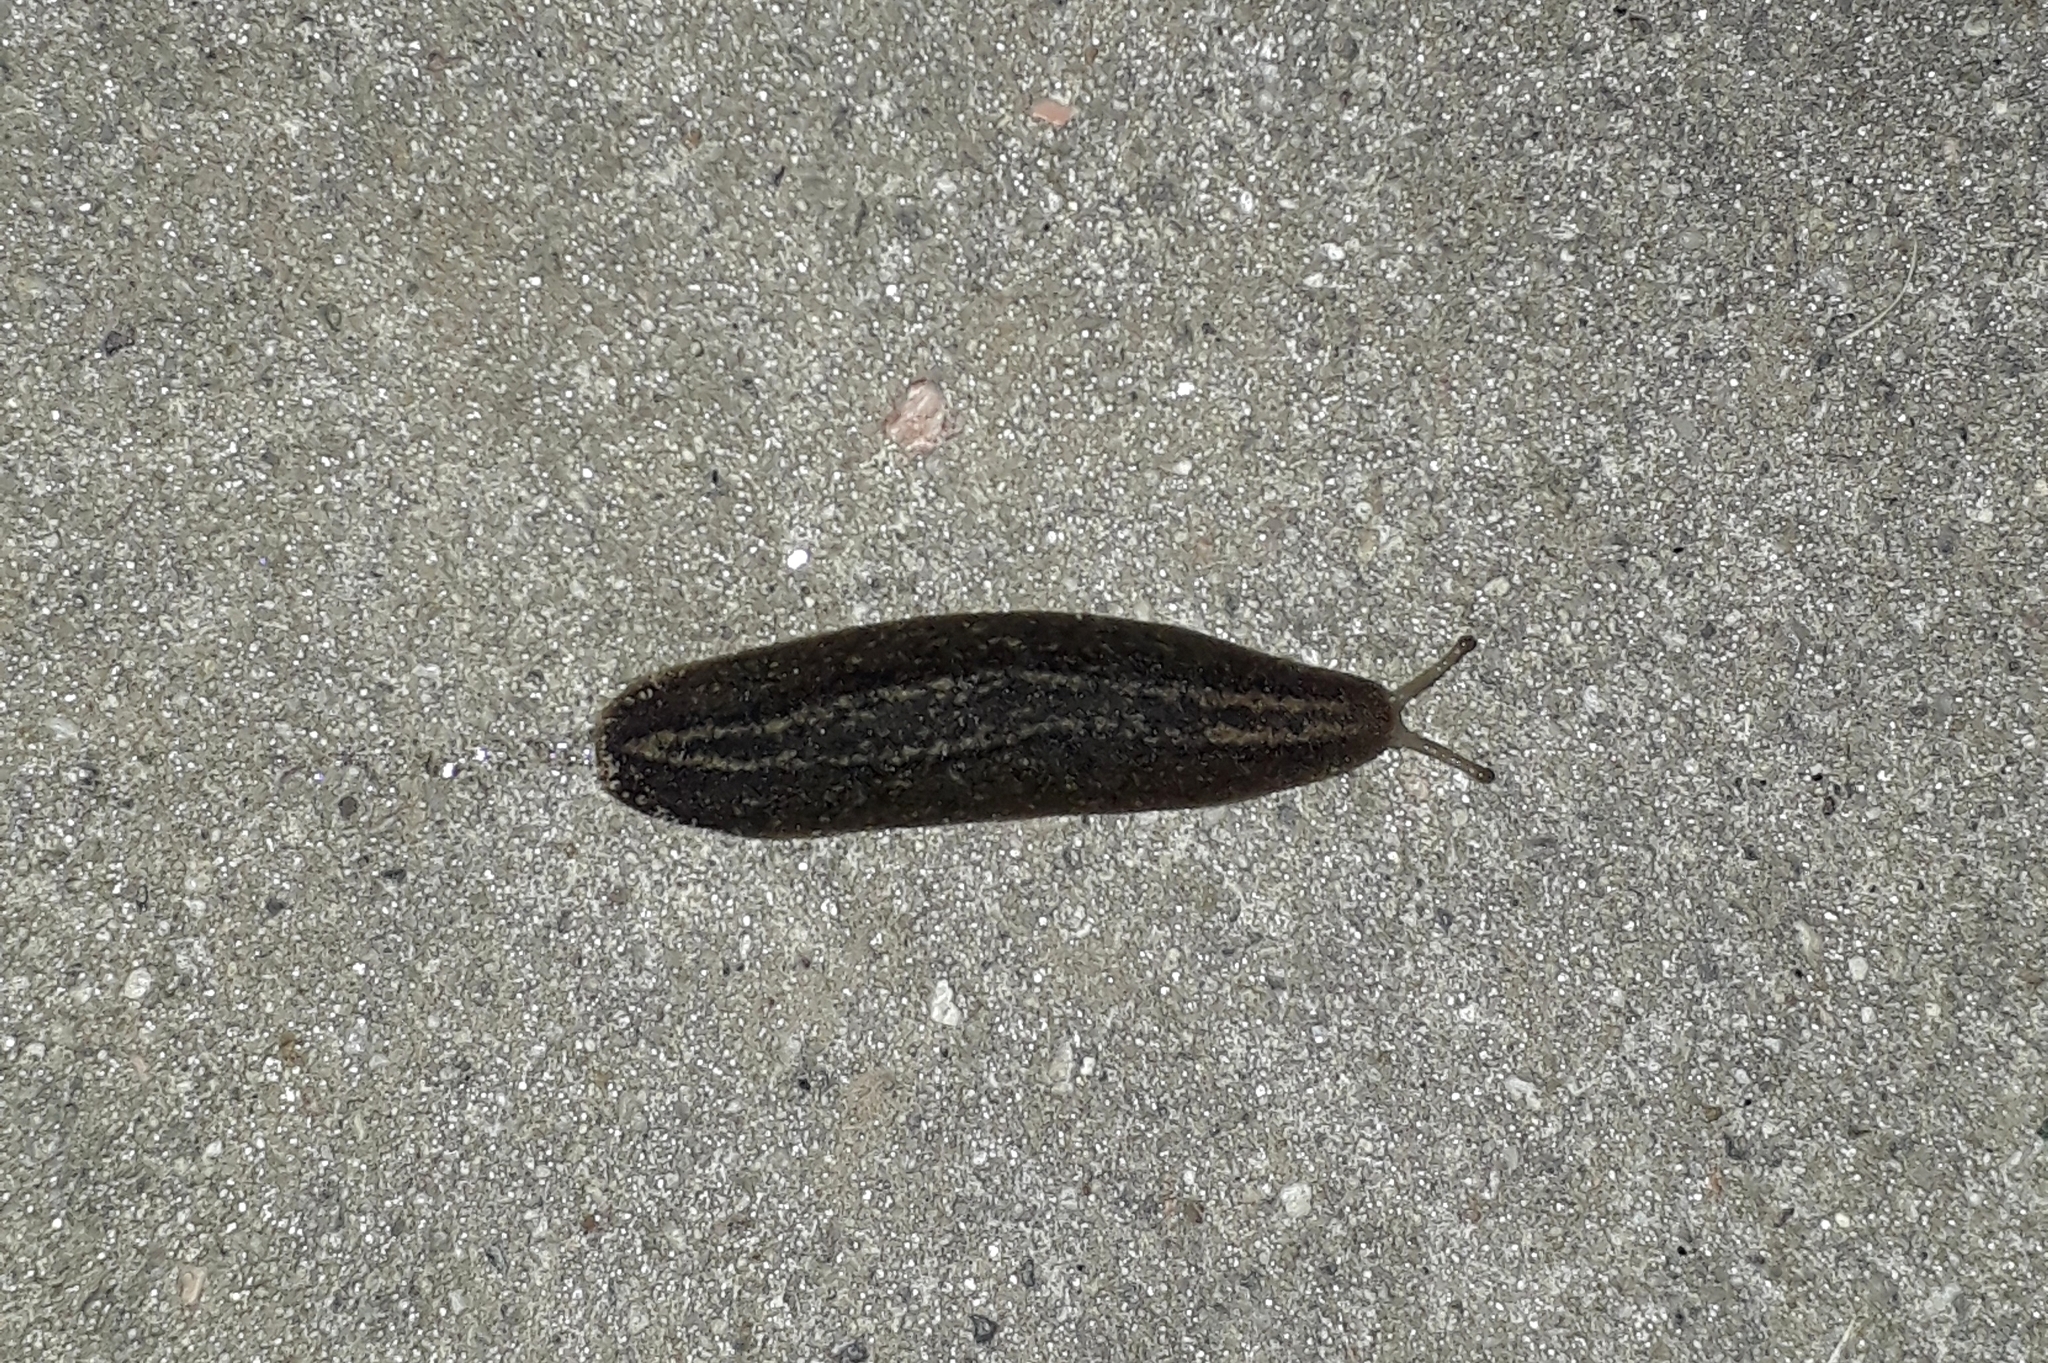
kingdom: Animalia
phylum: Mollusca
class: Gastropoda
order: Systellommatophora
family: Veronicellidae
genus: Phyllocaulis
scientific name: Phyllocaulis soleiformis
